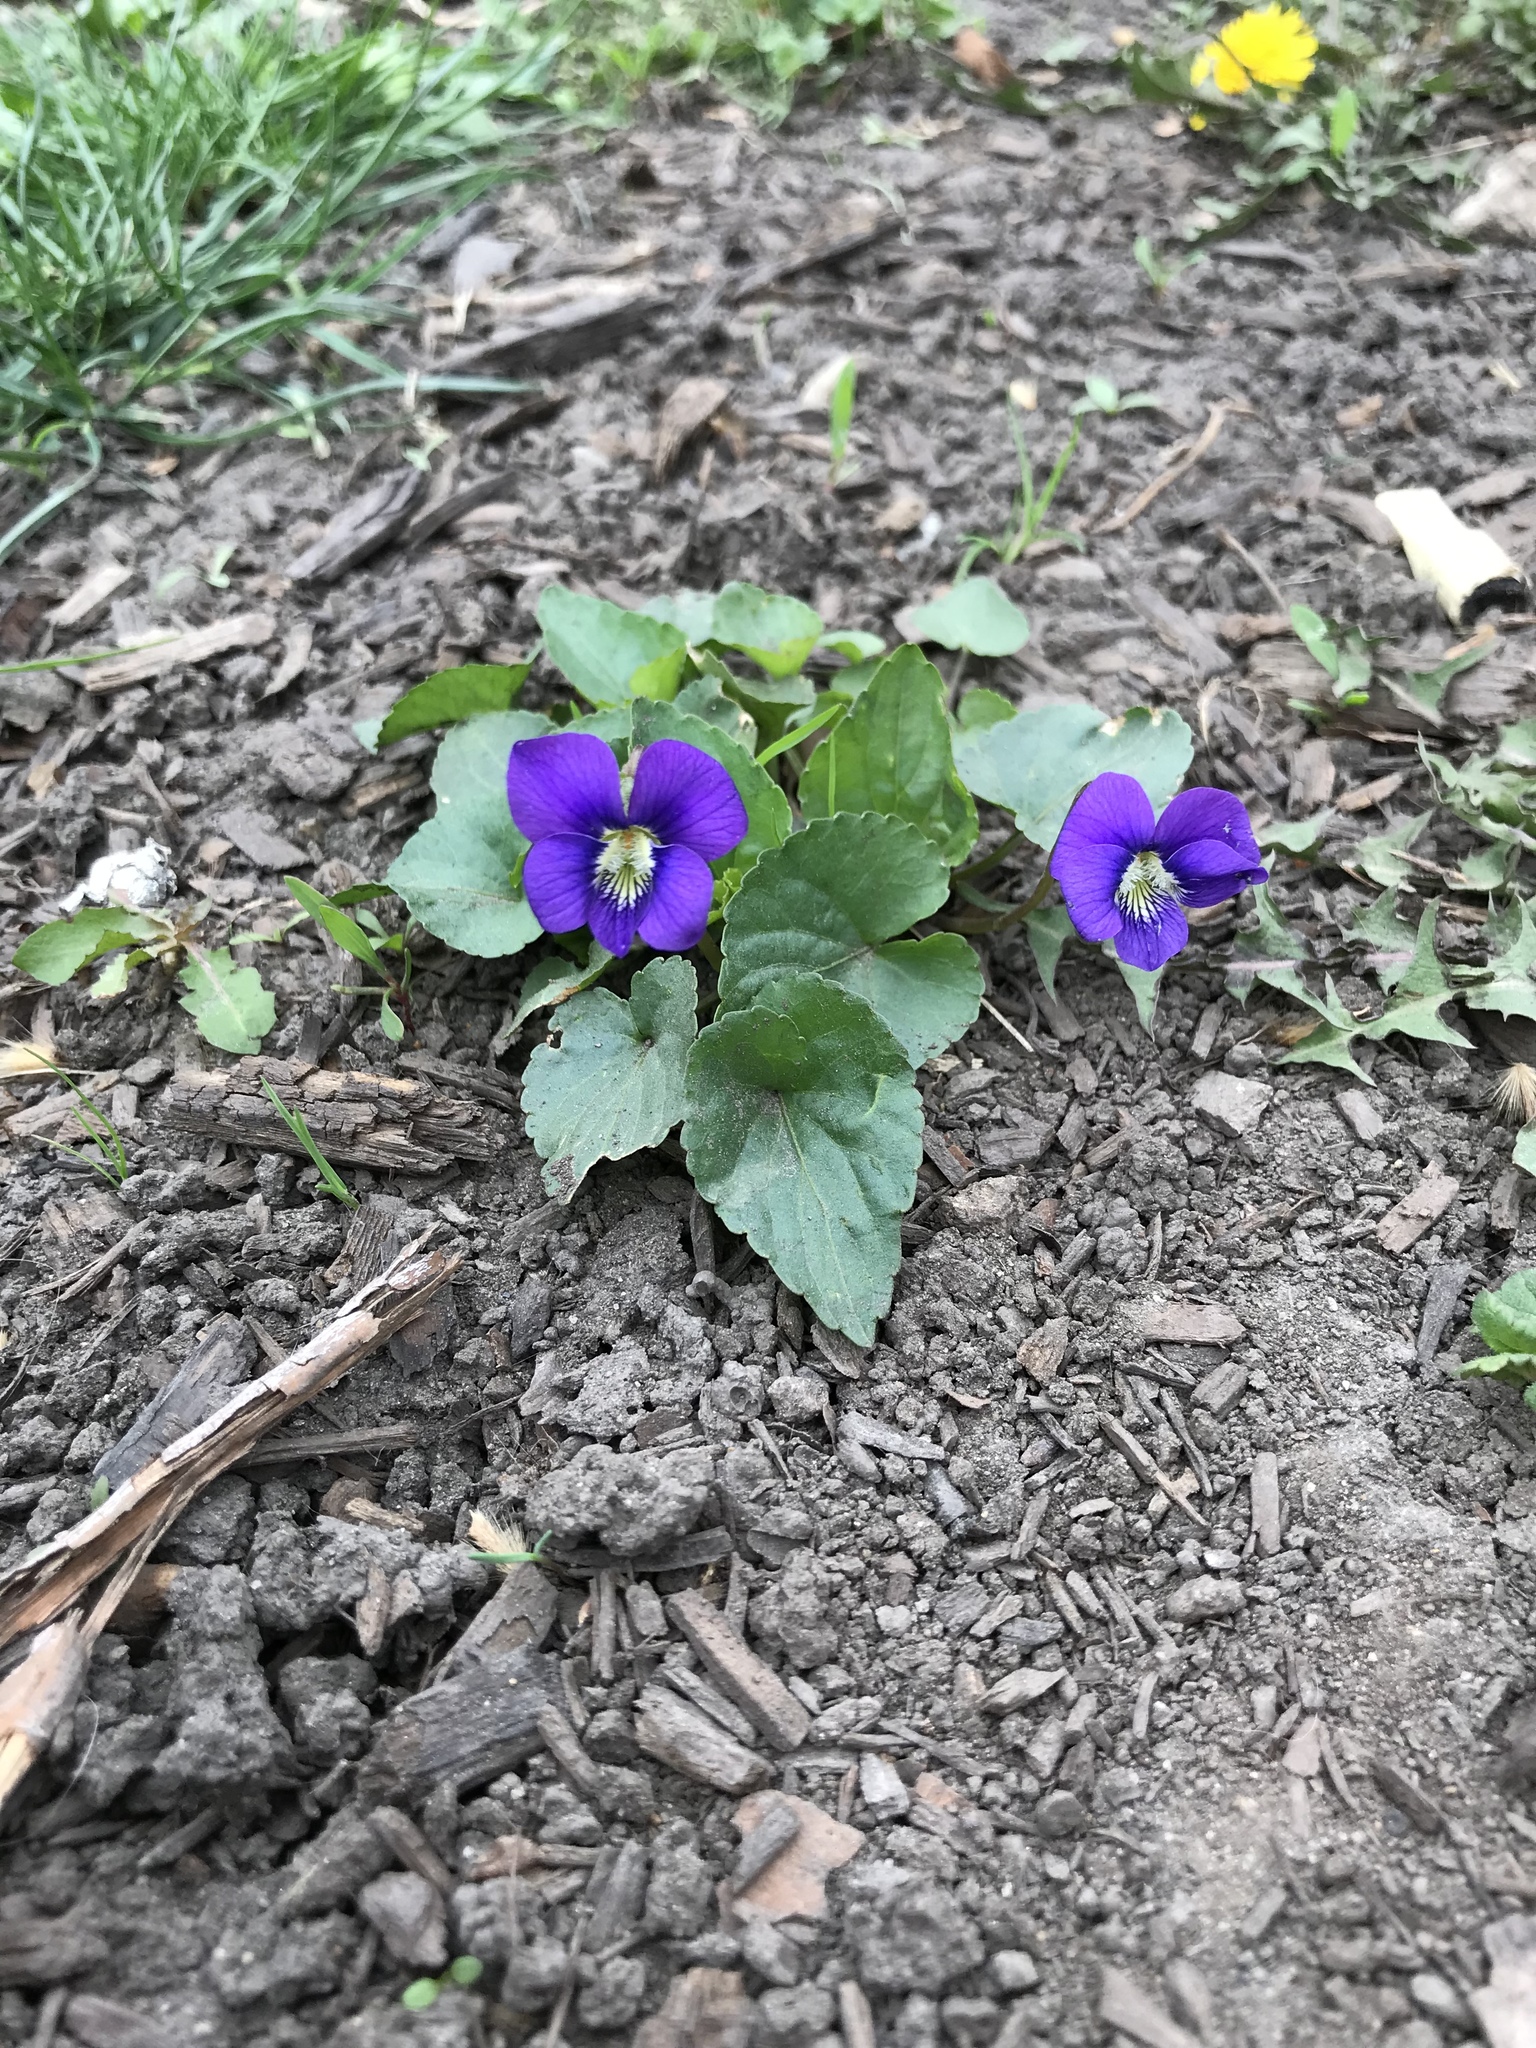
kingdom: Plantae
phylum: Tracheophyta
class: Magnoliopsida
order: Malpighiales
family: Violaceae
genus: Viola
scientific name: Viola sororia
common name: Dooryard violet
